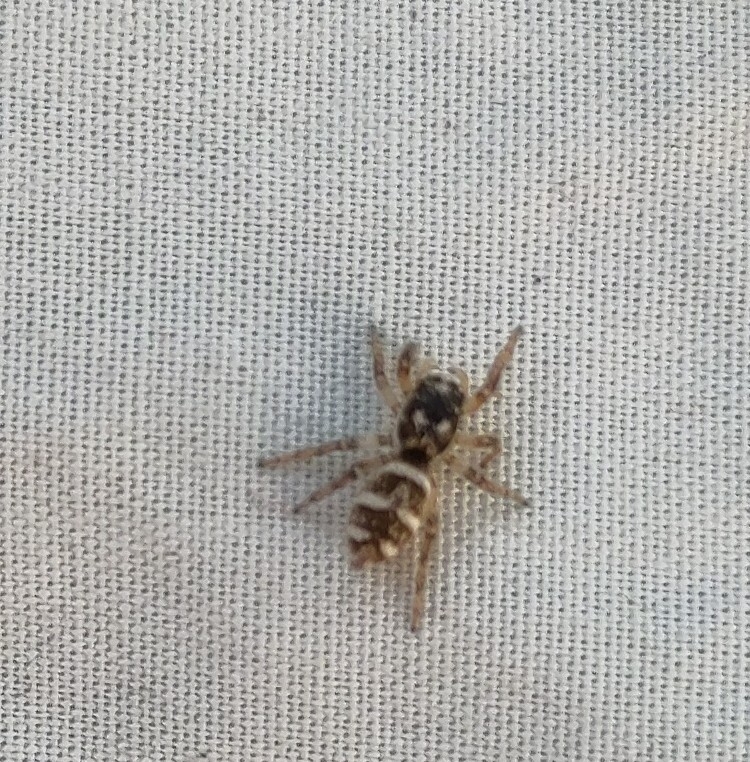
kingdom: Animalia
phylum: Arthropoda
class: Arachnida
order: Araneae
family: Salticidae
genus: Salticus
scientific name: Salticus scenicus
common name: Zebra jumper
